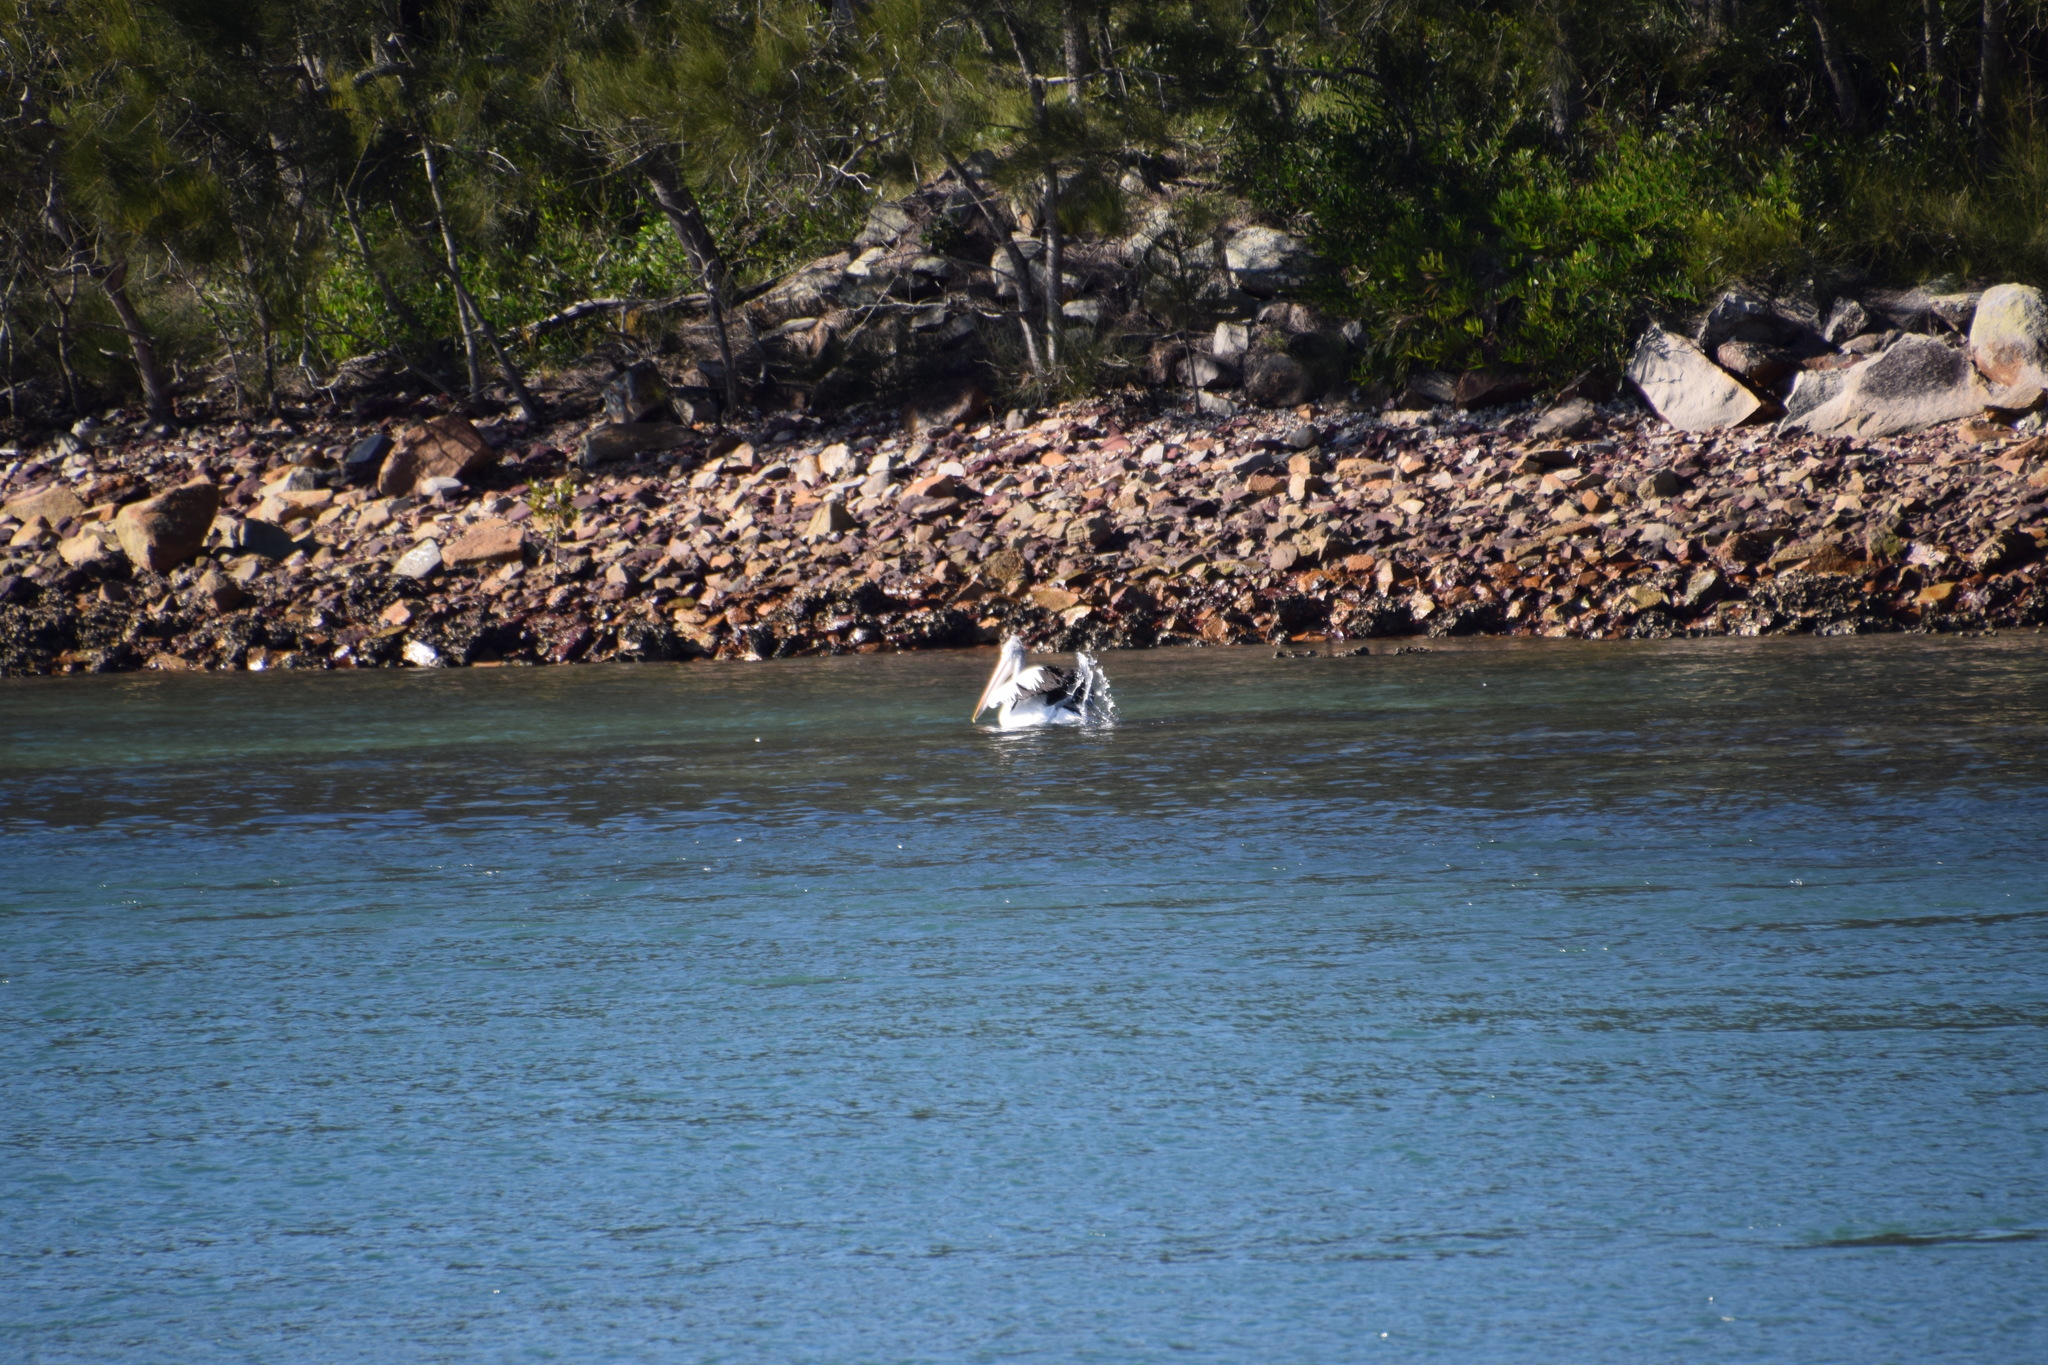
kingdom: Animalia
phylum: Chordata
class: Aves
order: Pelecaniformes
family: Pelecanidae
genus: Pelecanus
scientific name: Pelecanus conspicillatus
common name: Australian pelican
